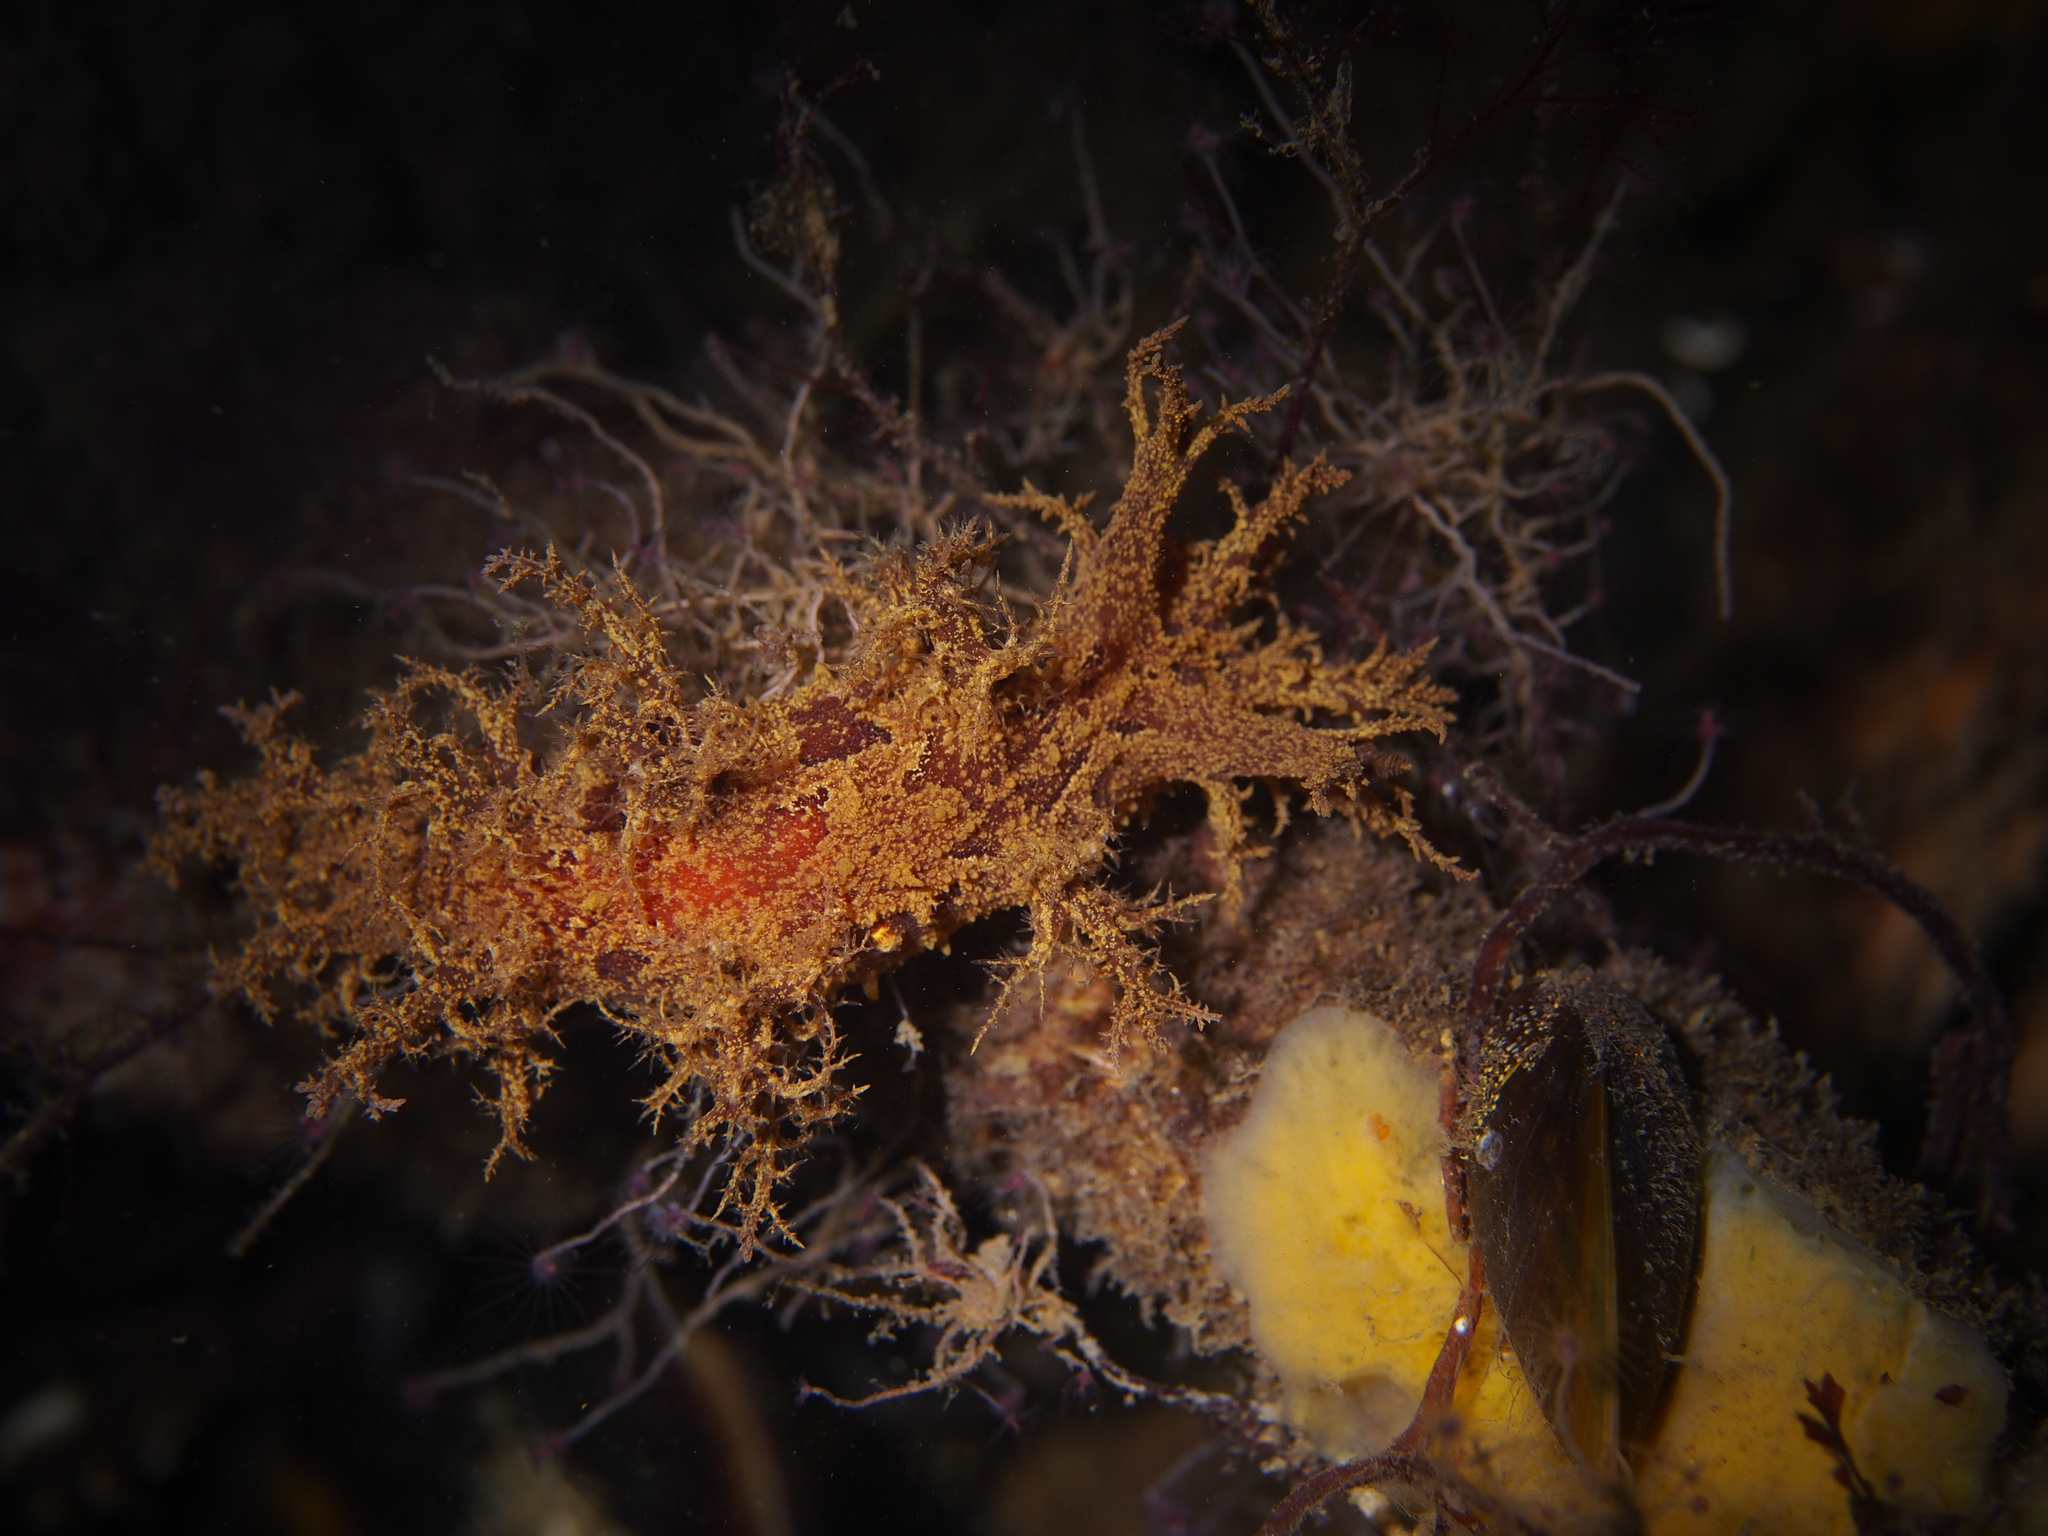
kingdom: Animalia
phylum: Mollusca
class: Gastropoda
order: Nudibranchia
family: Dendronotidae
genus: Dendronotus
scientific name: Dendronotus europaeus
